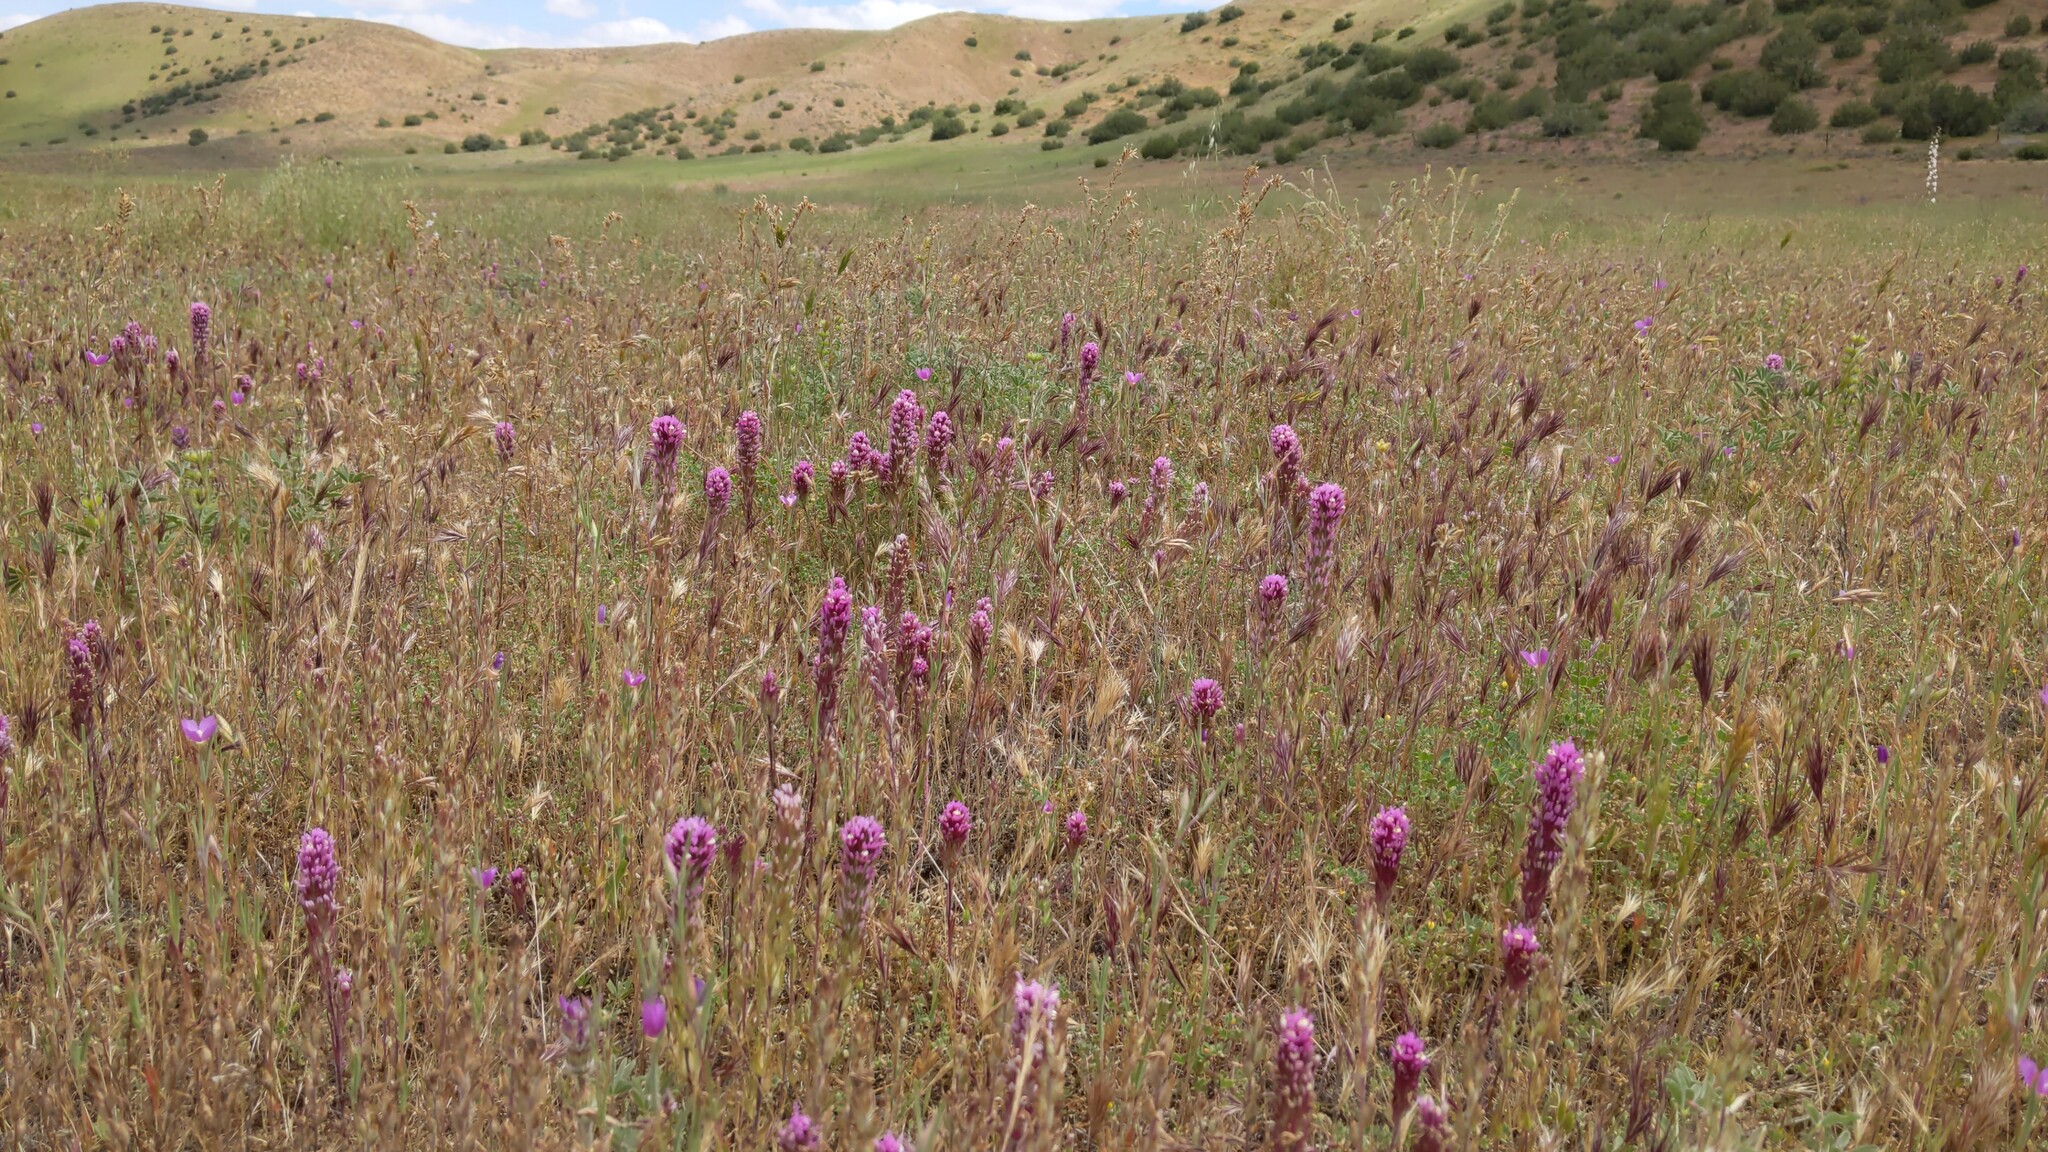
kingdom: Plantae
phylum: Tracheophyta
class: Magnoliopsida
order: Lamiales
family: Orobanchaceae
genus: Castilleja
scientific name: Castilleja exserta
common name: Purple owl-clover
